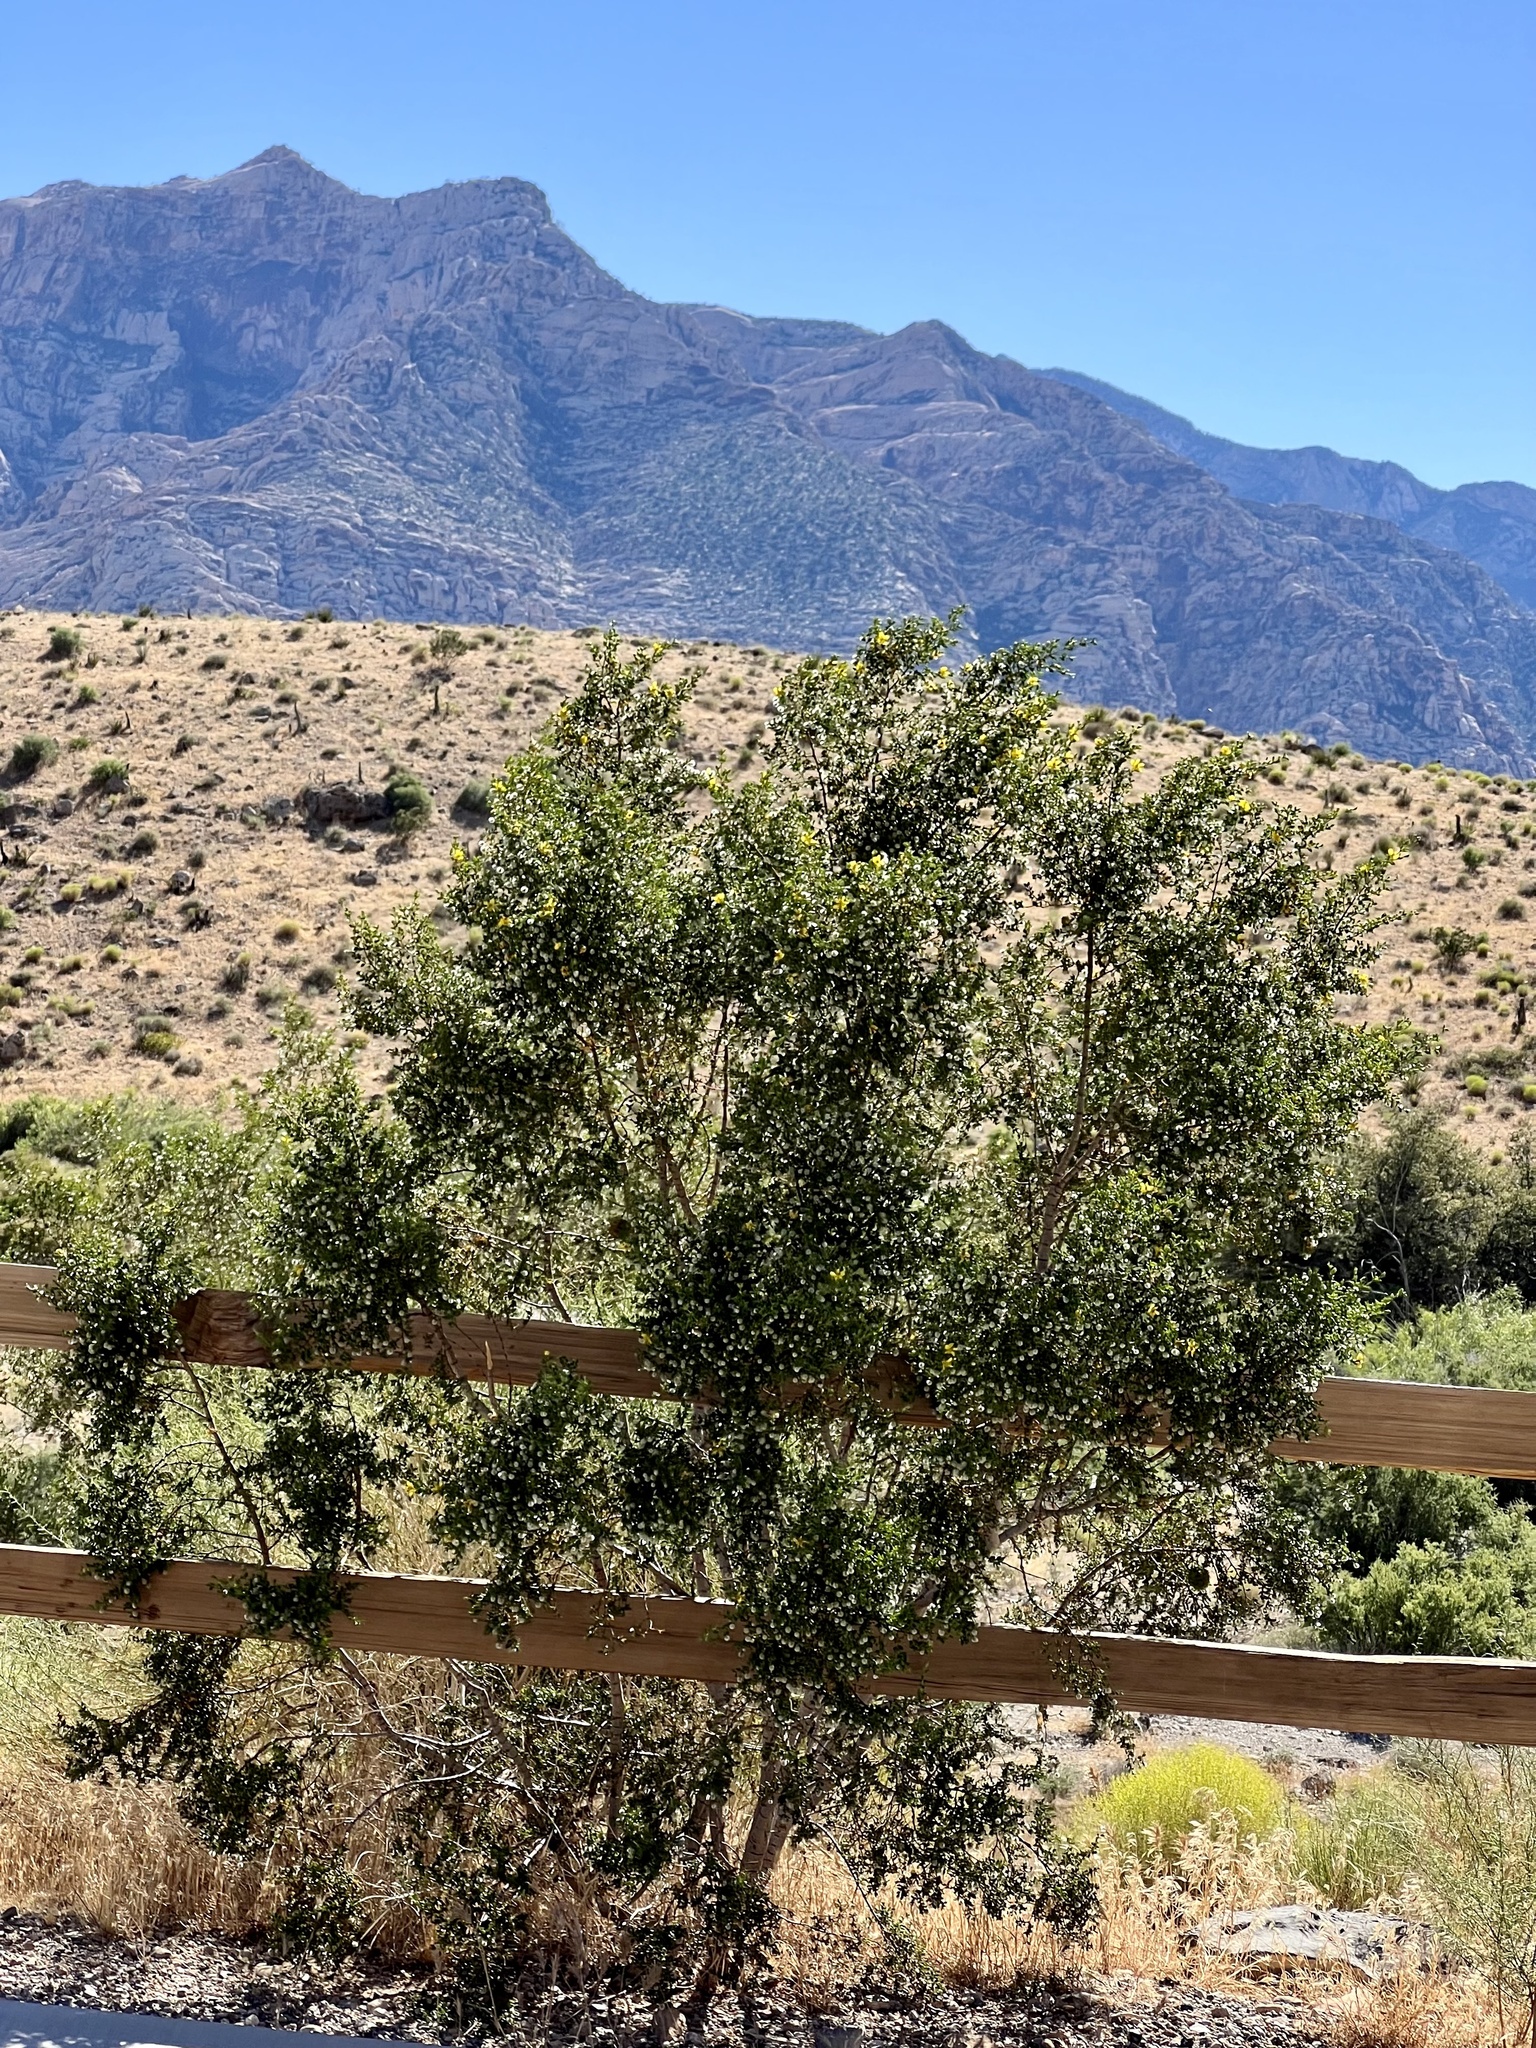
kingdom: Plantae
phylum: Tracheophyta
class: Magnoliopsida
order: Zygophyllales
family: Zygophyllaceae
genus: Larrea
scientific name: Larrea tridentata
